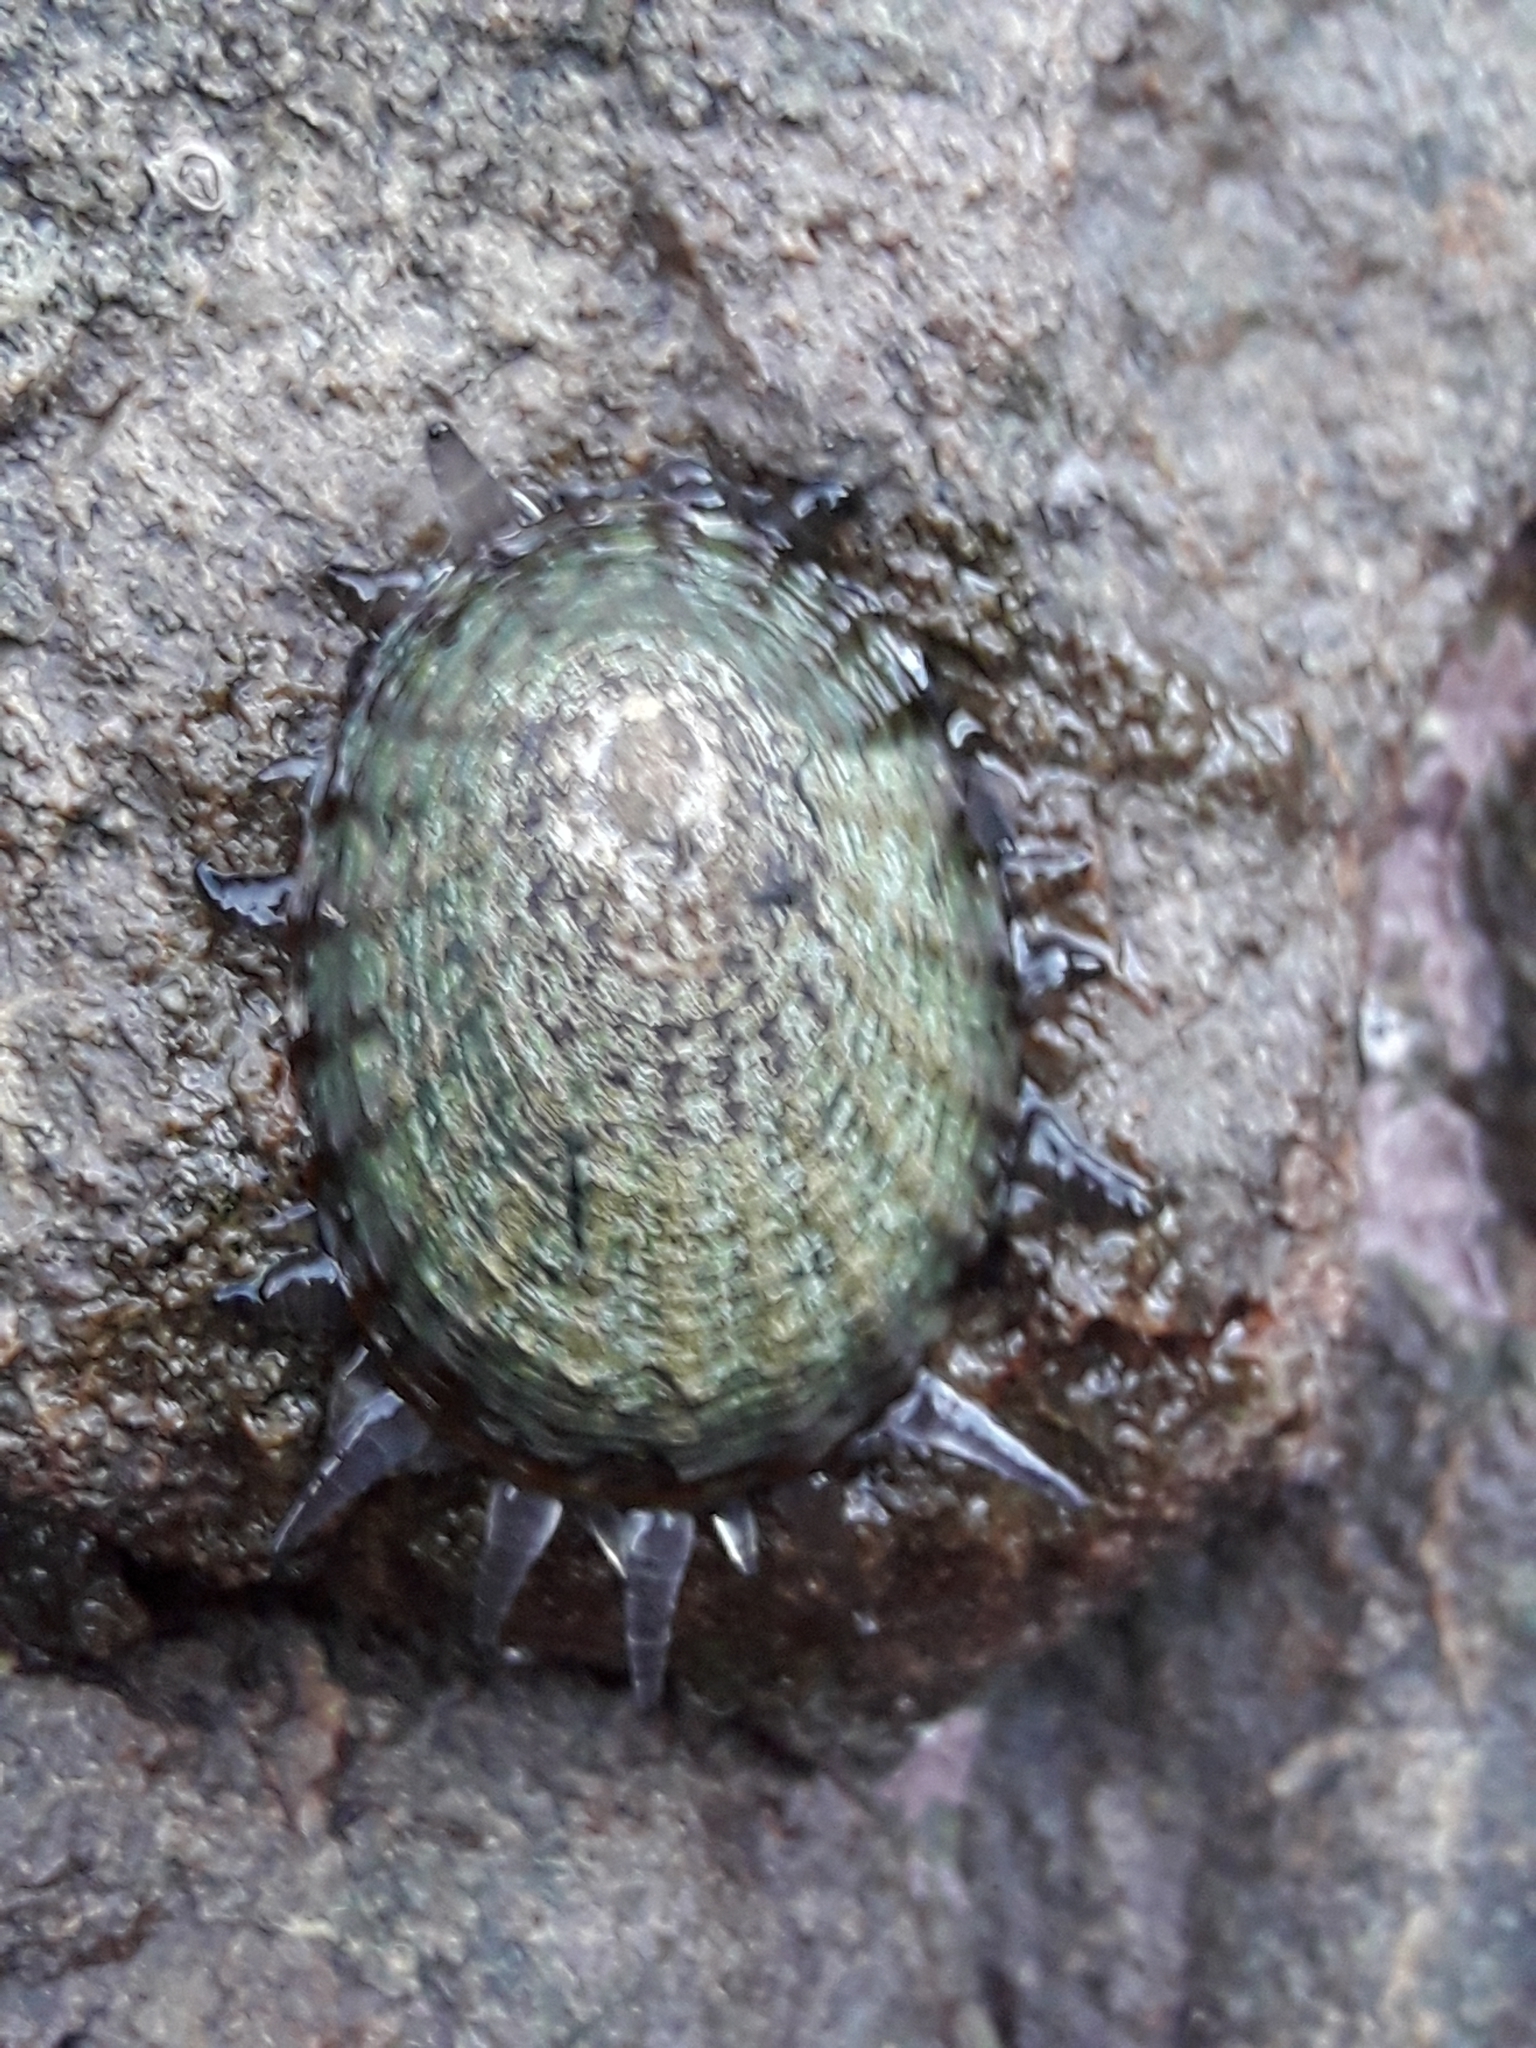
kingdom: Animalia
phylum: Mollusca
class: Gastropoda
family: Nacellidae
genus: Cellana
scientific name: Cellana denticulata
